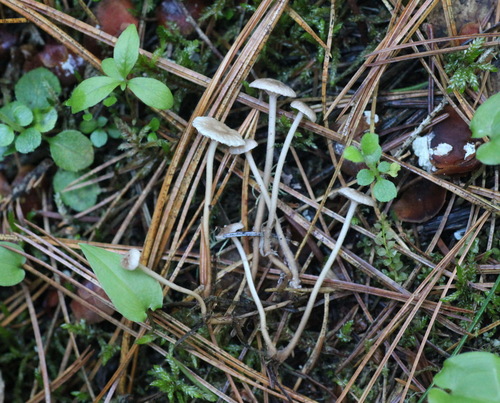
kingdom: Fungi
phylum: Basidiomycota
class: Agaricomycetes
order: Agaricales
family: Omphalotaceae
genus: Mycetinis
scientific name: Mycetinis scorodonius
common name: Vampires bane
